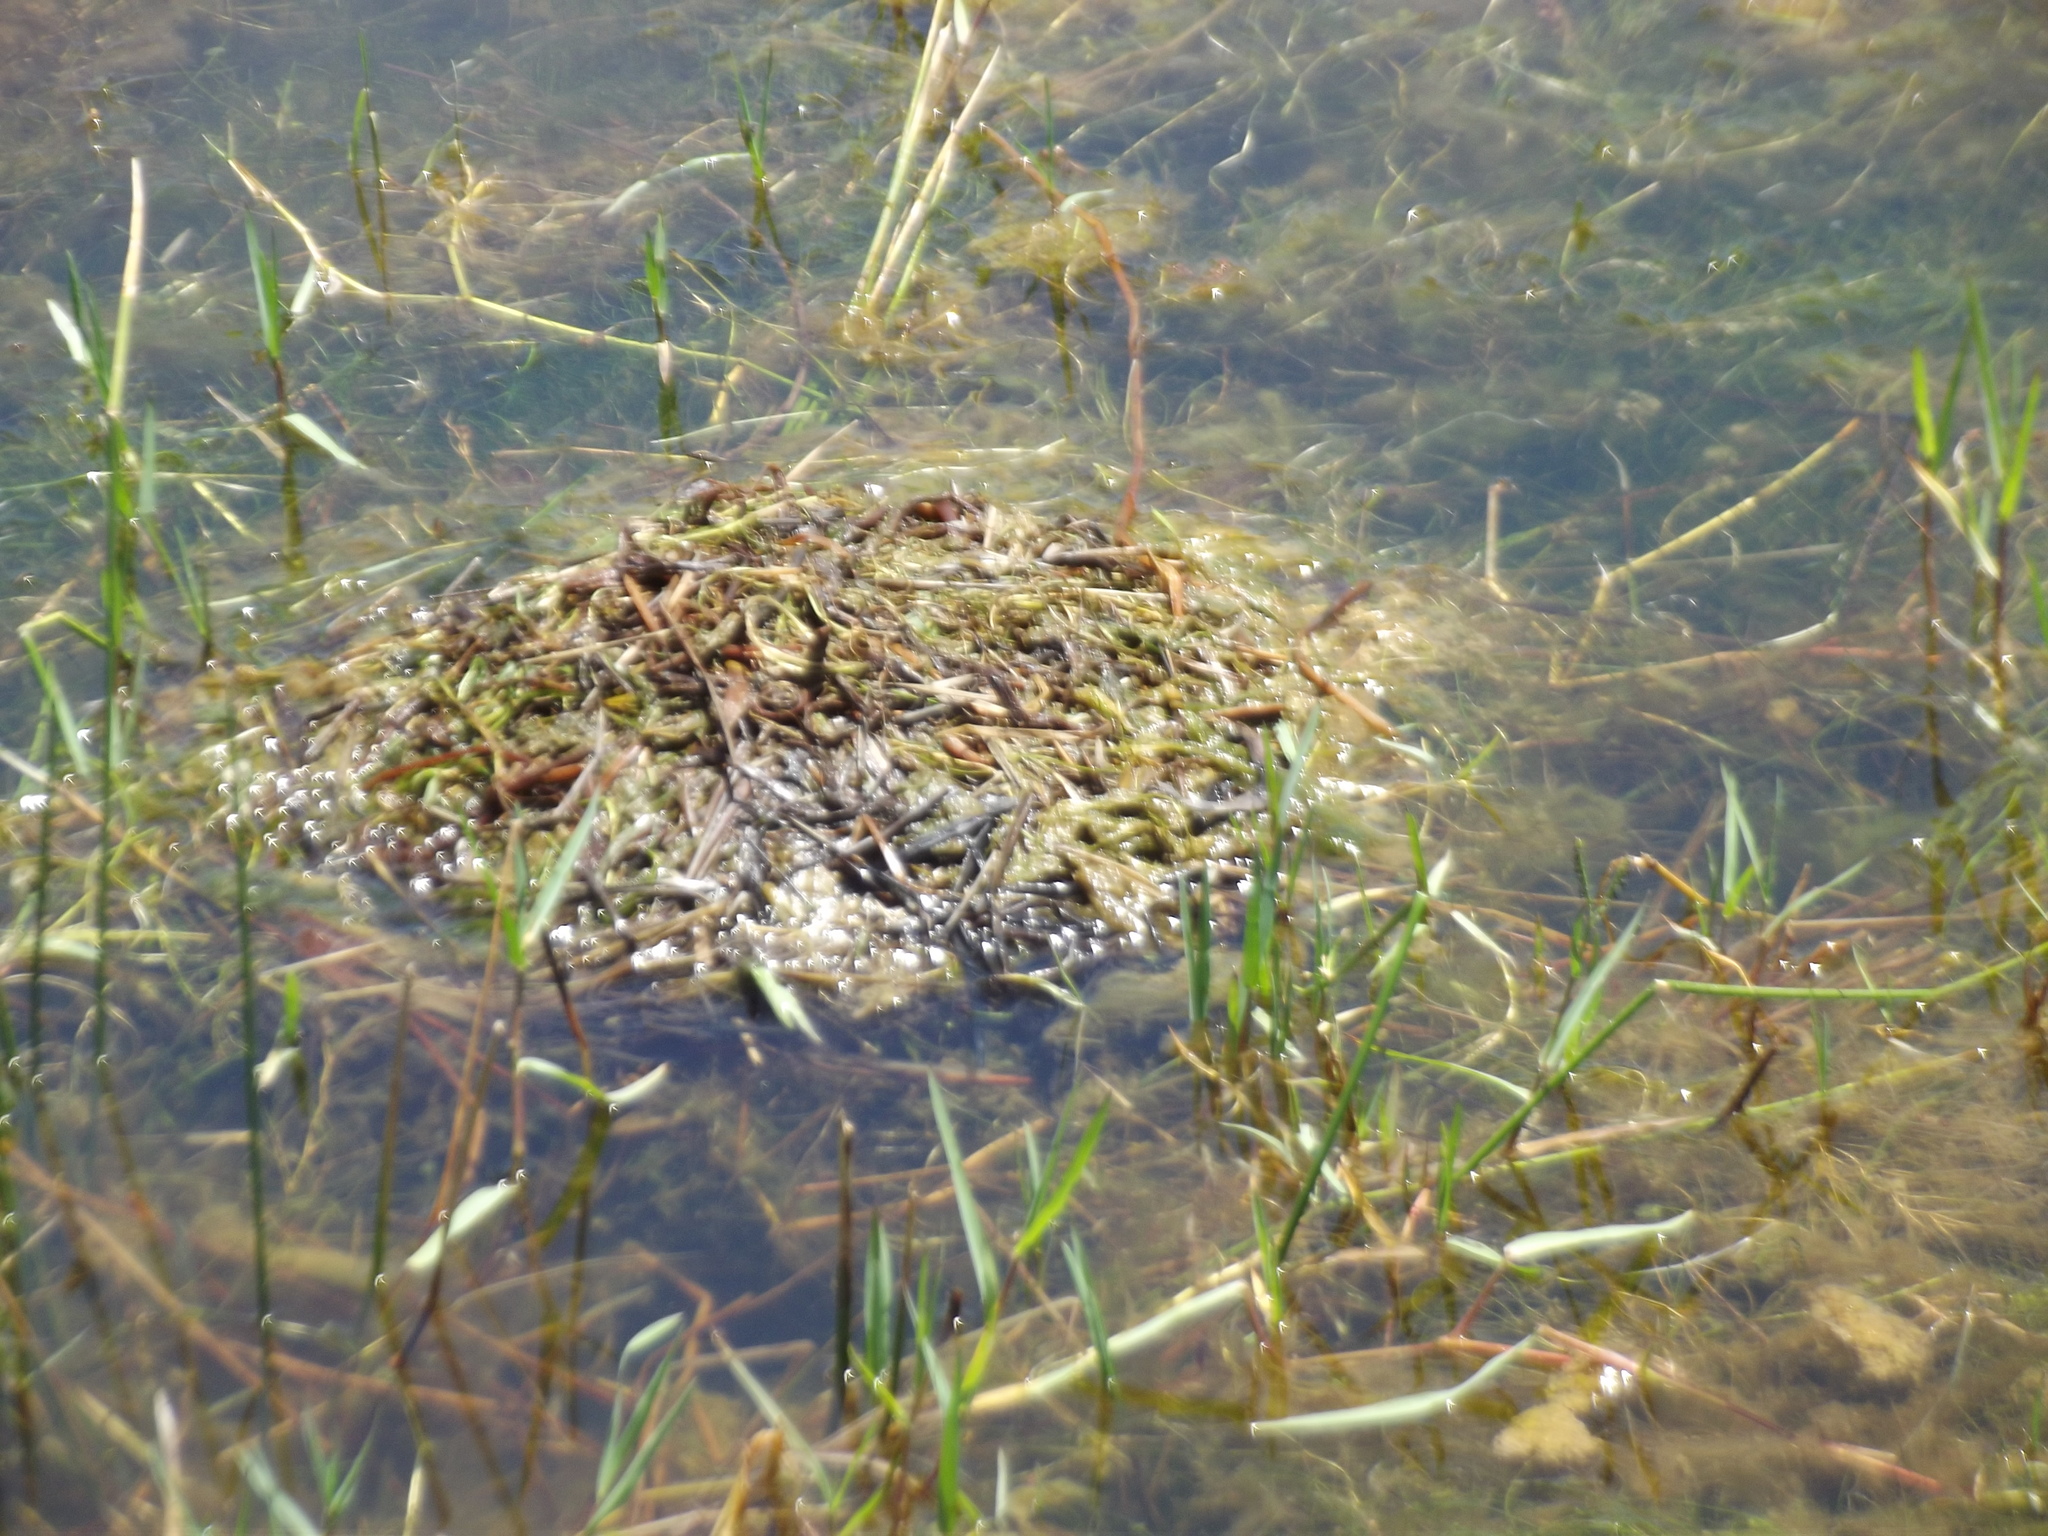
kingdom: Animalia
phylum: Chordata
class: Aves
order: Podicipediformes
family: Podicipedidae
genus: Tachybaptus
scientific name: Tachybaptus ruficollis
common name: Little grebe
